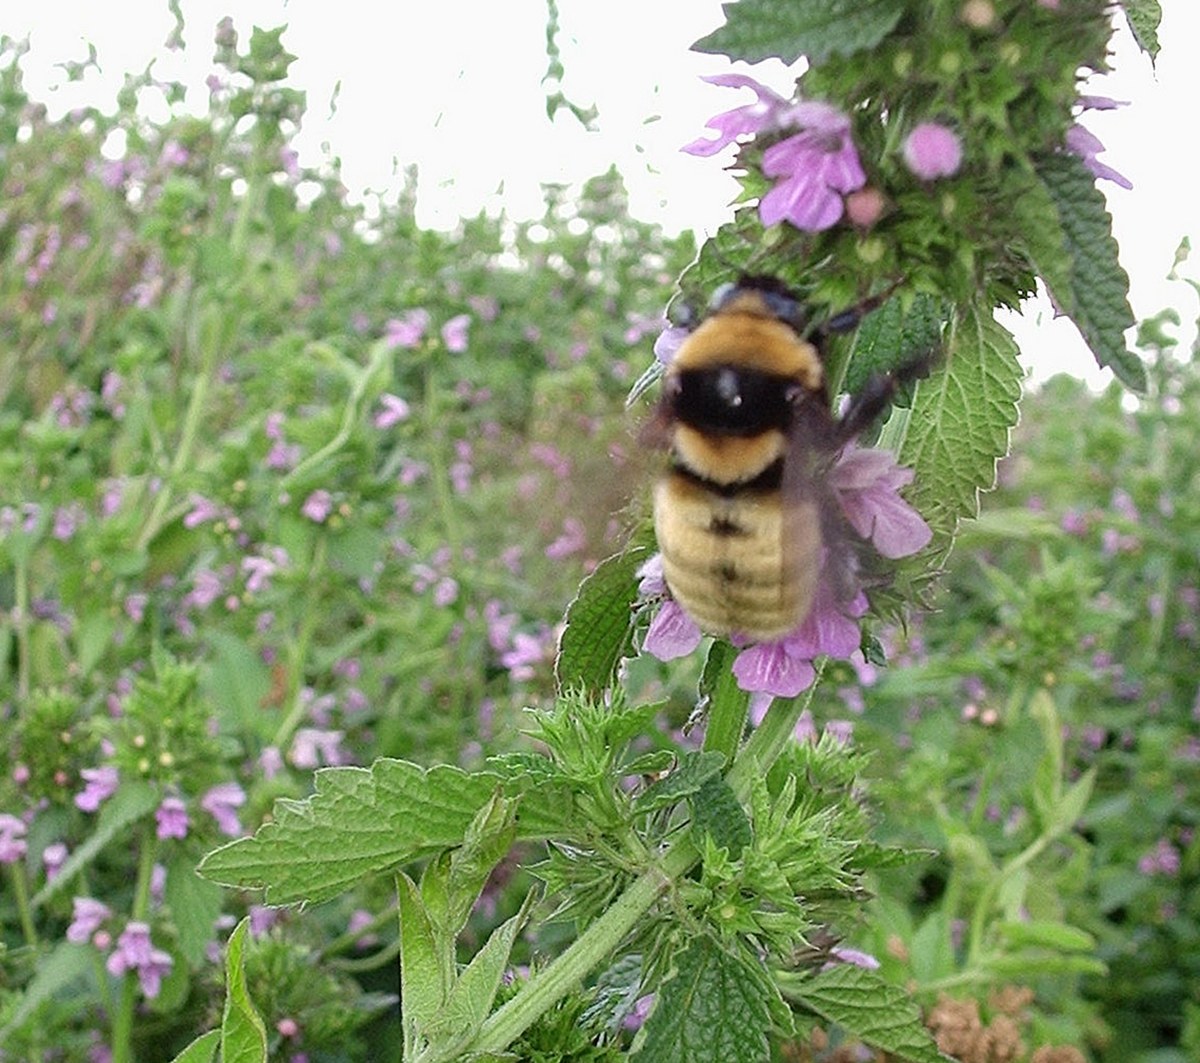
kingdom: Animalia
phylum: Arthropoda
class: Insecta
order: Hymenoptera
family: Apidae
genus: Bombus
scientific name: Bombus fragrans
